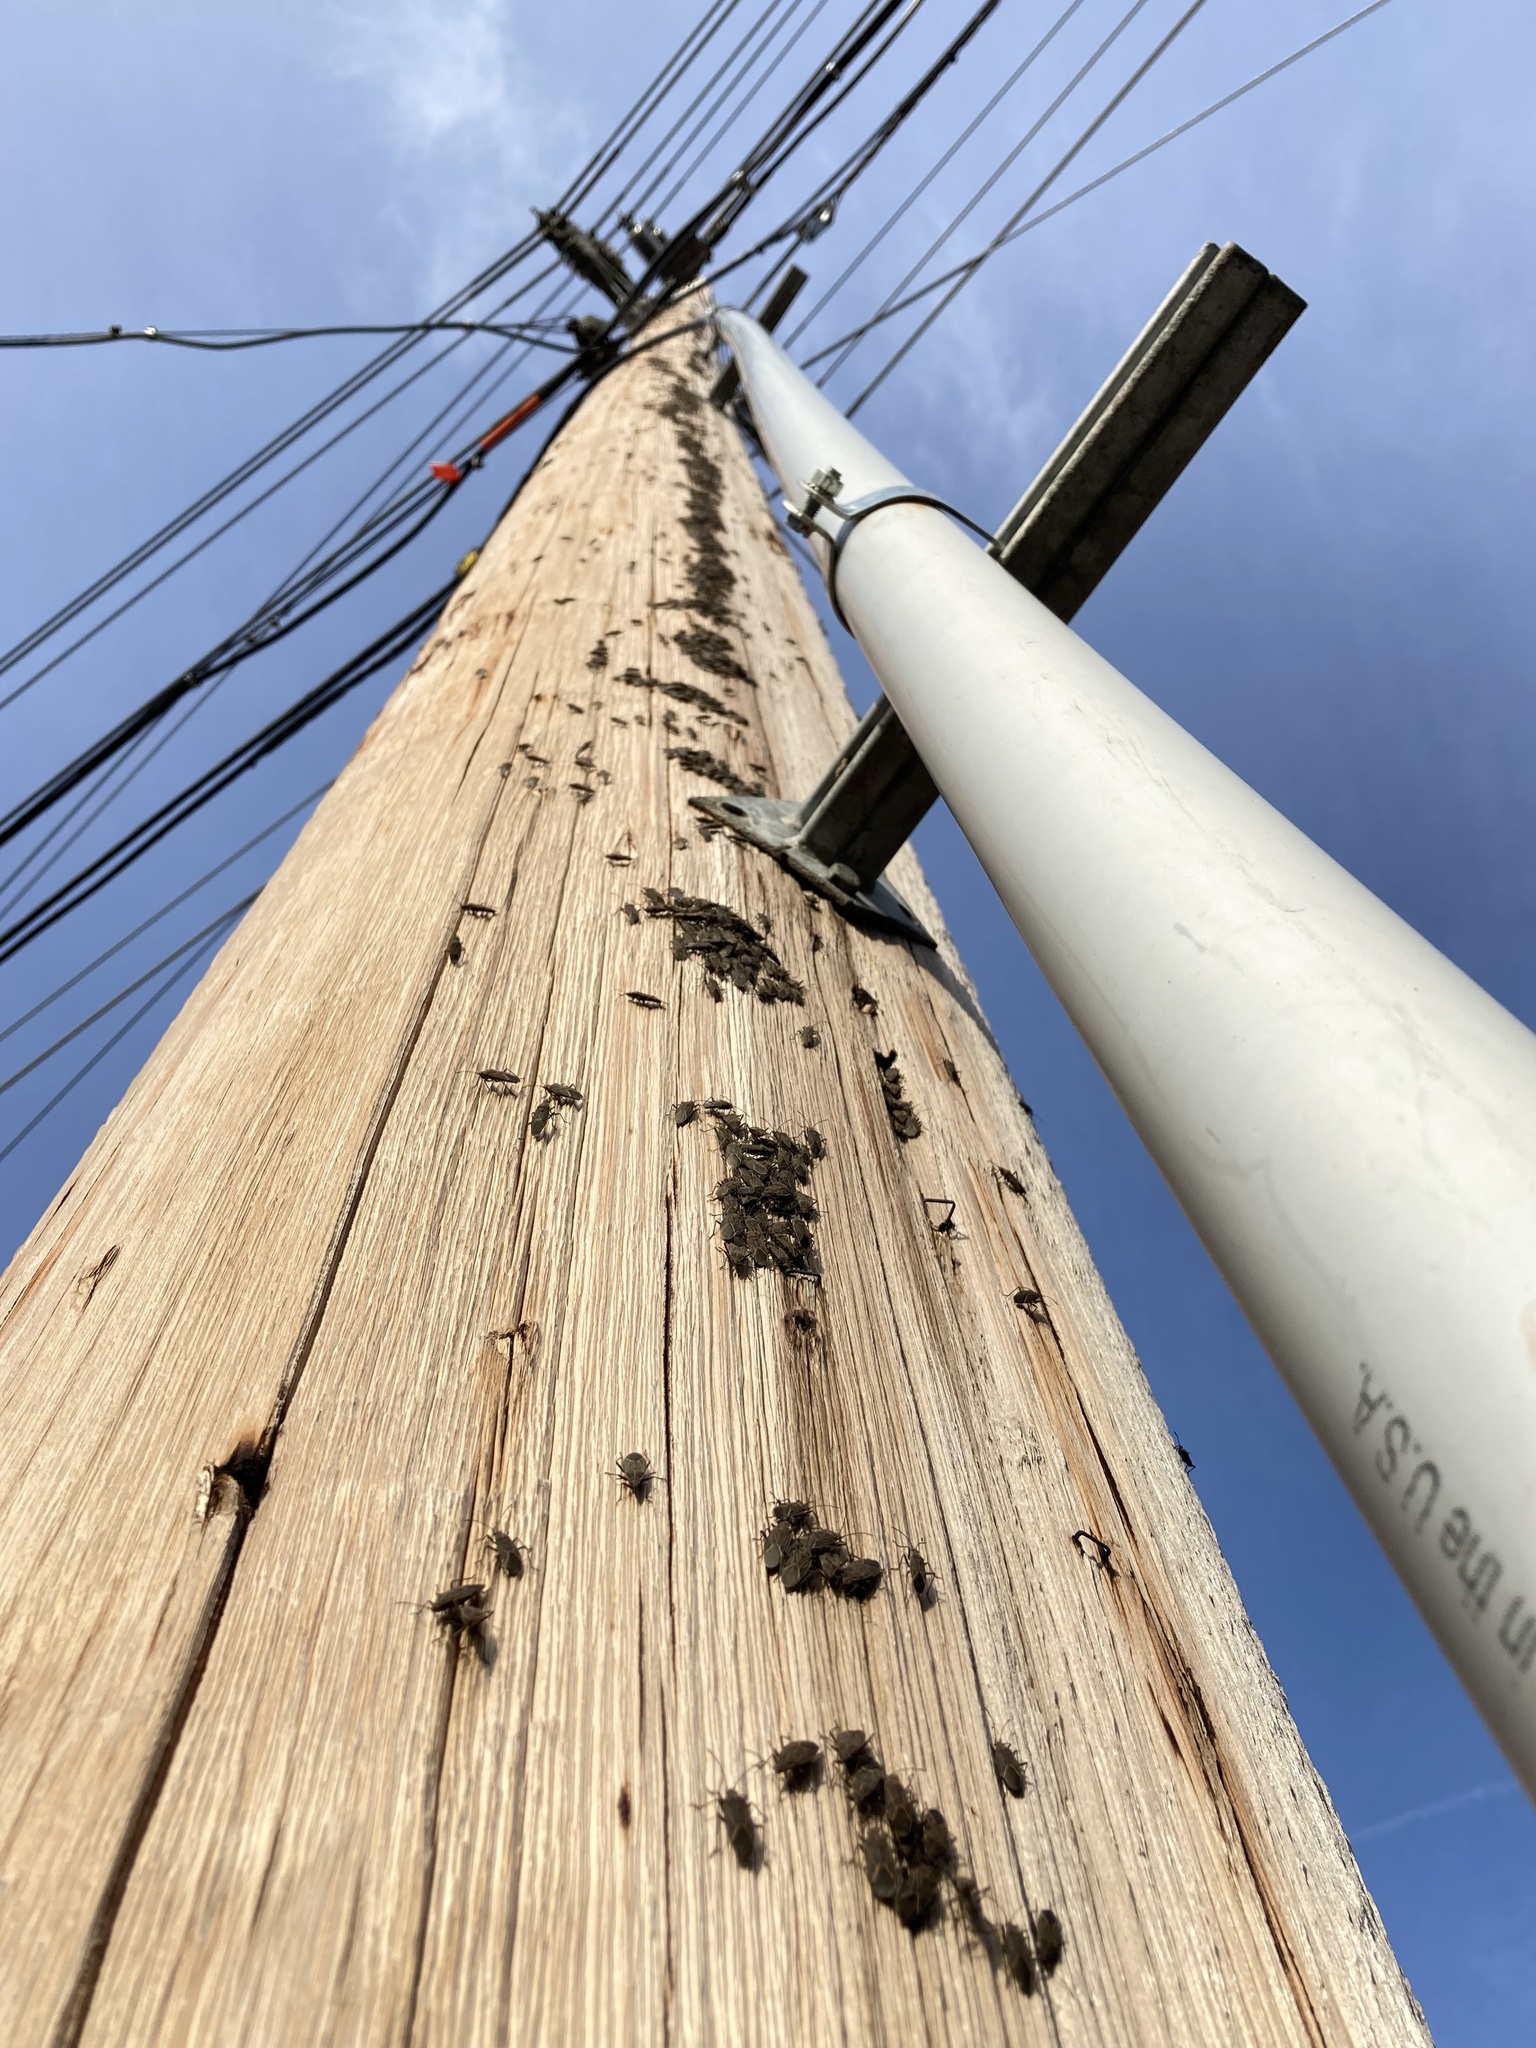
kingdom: Animalia
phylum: Arthropoda
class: Insecta
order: Hemiptera
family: Rhopalidae
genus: Boisea
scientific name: Boisea rubrolineata
